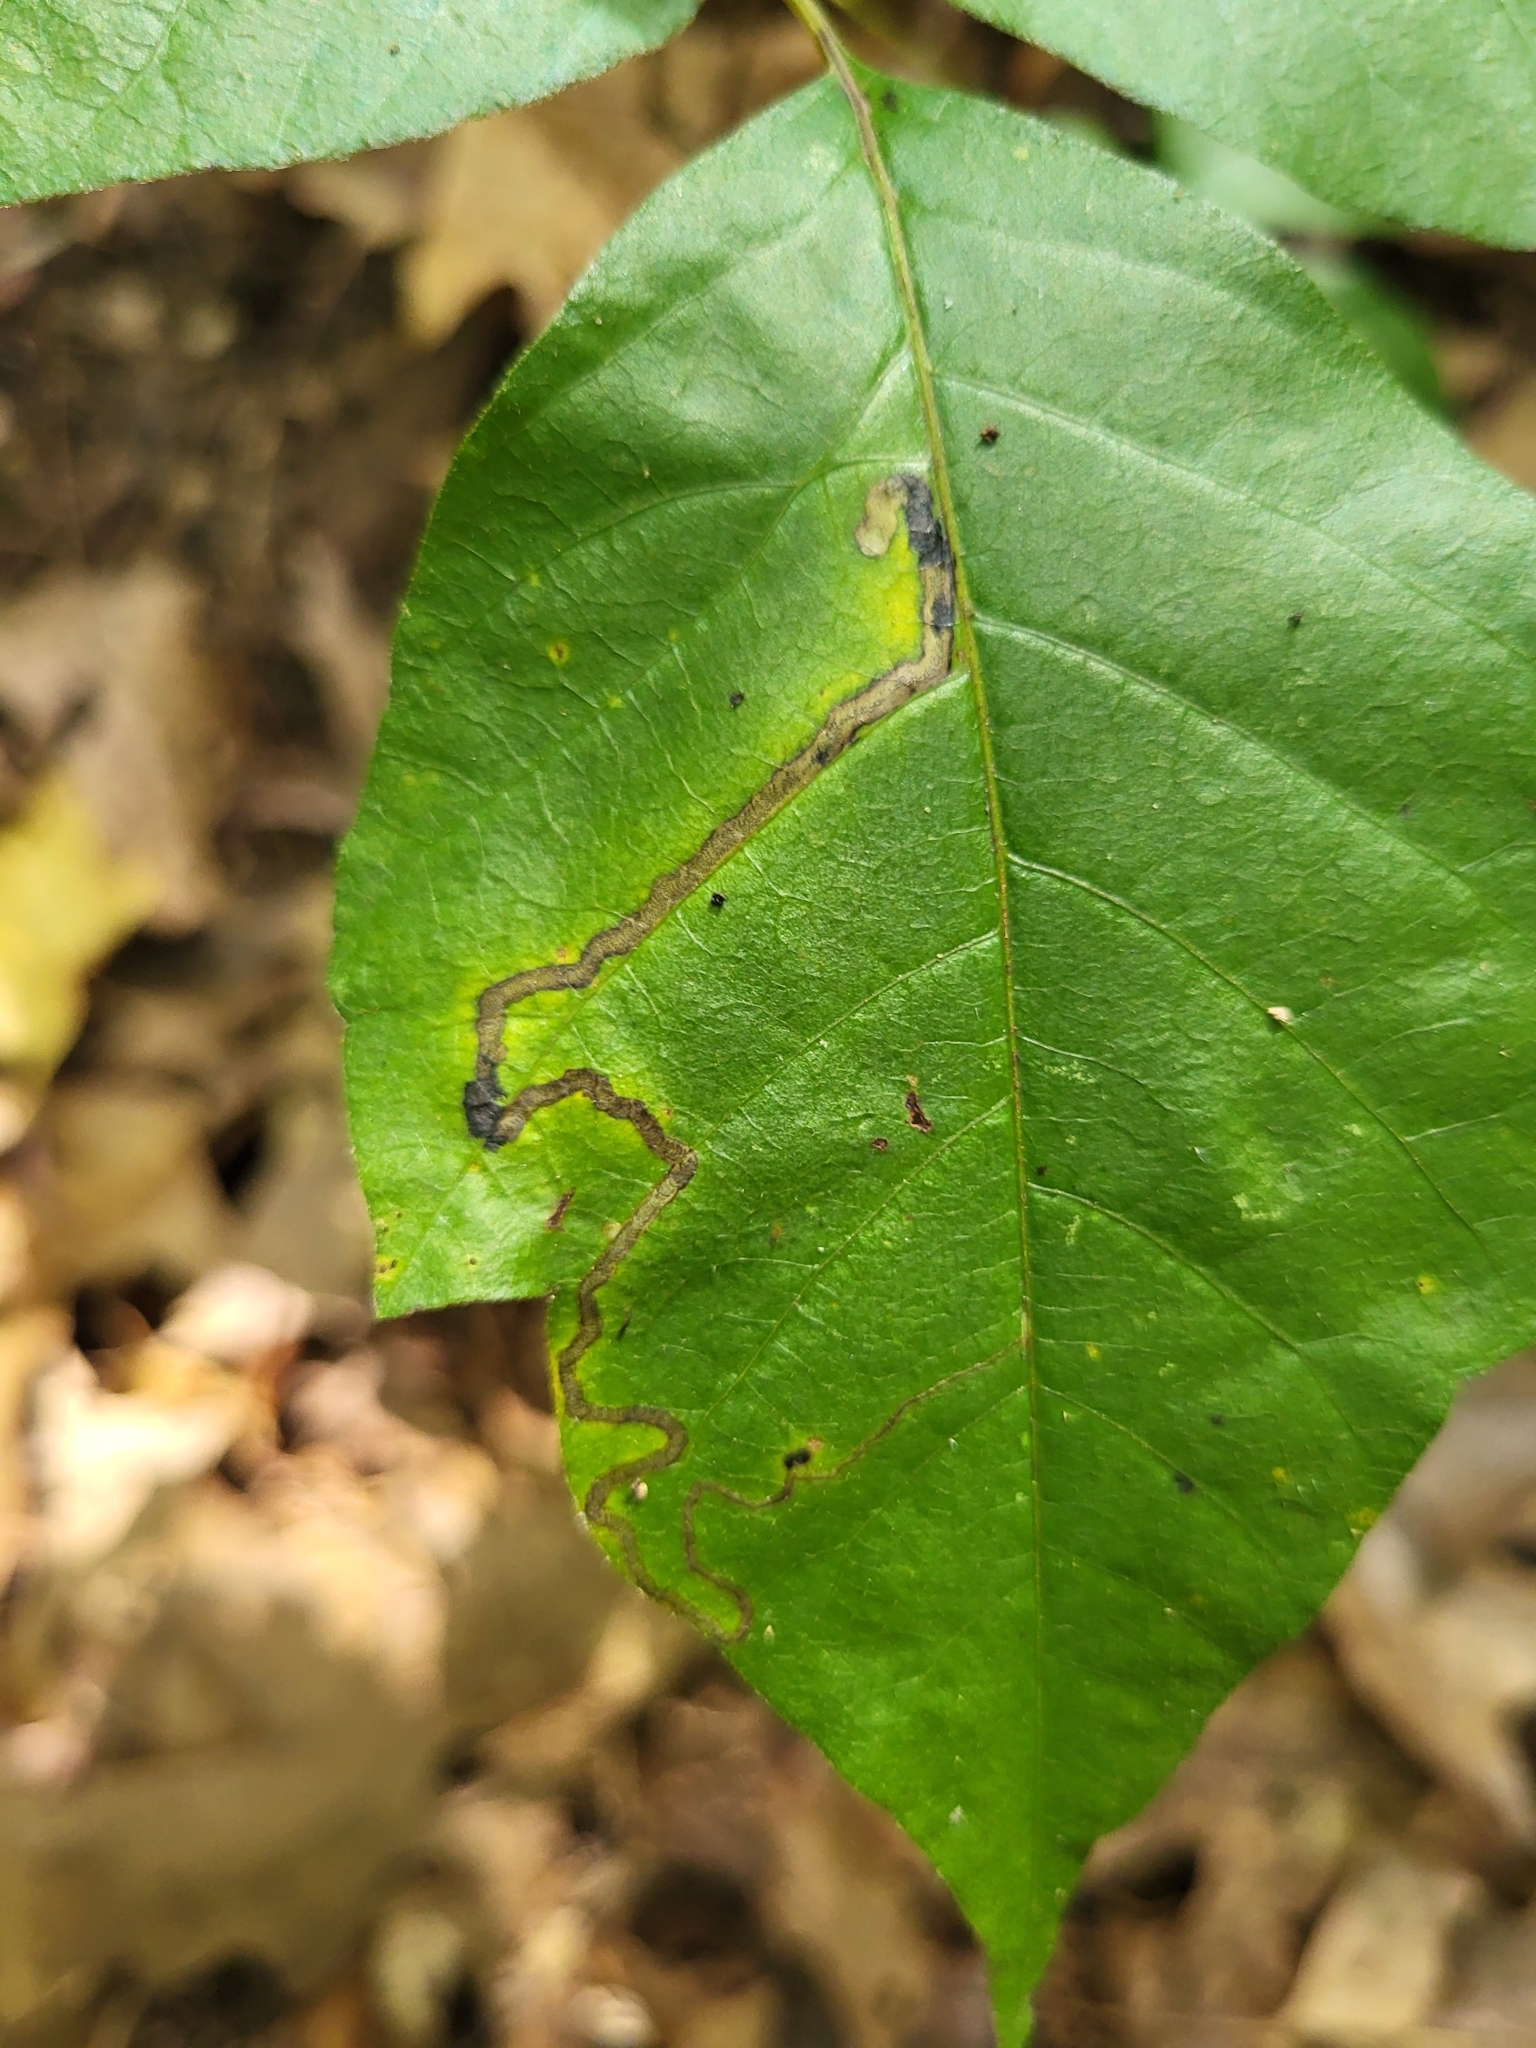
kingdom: Animalia
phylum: Arthropoda
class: Insecta
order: Lepidoptera
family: Nepticulidae
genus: Stigmella
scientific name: Stigmella rhoifoliella
